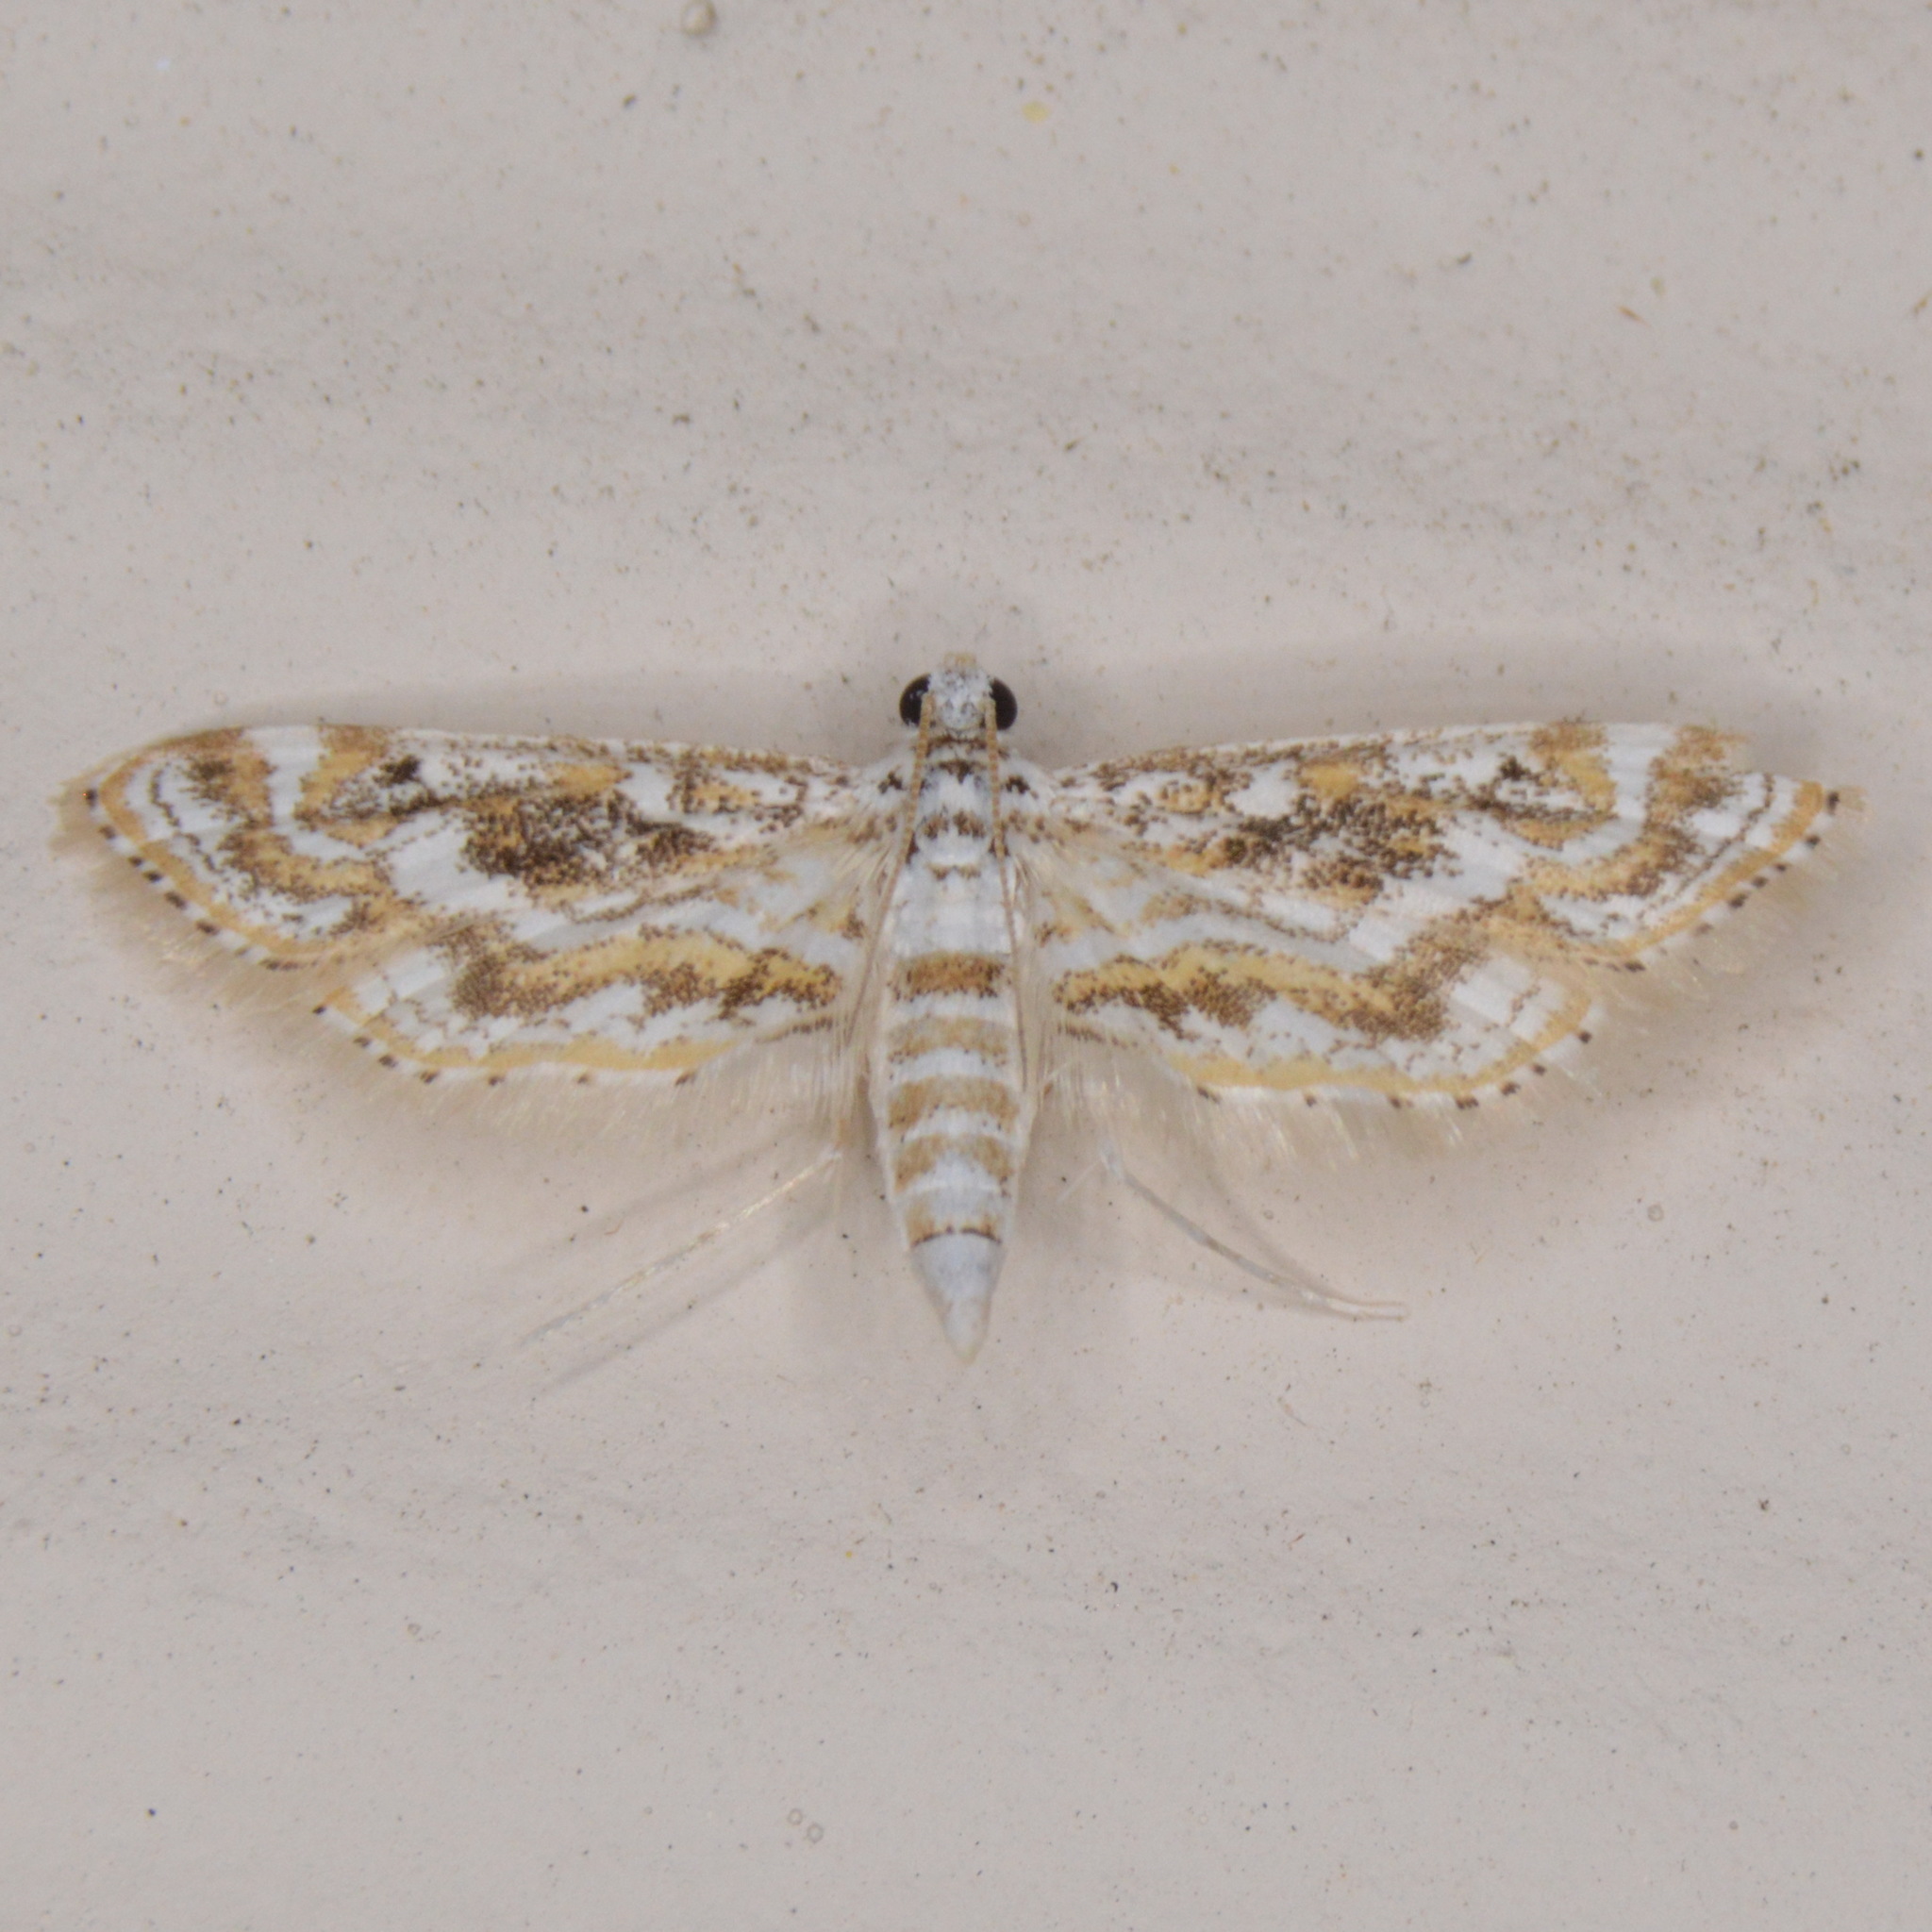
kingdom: Animalia
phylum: Arthropoda
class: Insecta
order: Lepidoptera
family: Crambidae
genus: Parapoynx
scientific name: Parapoynx diminutalis
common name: Hydrilla leafcutter
